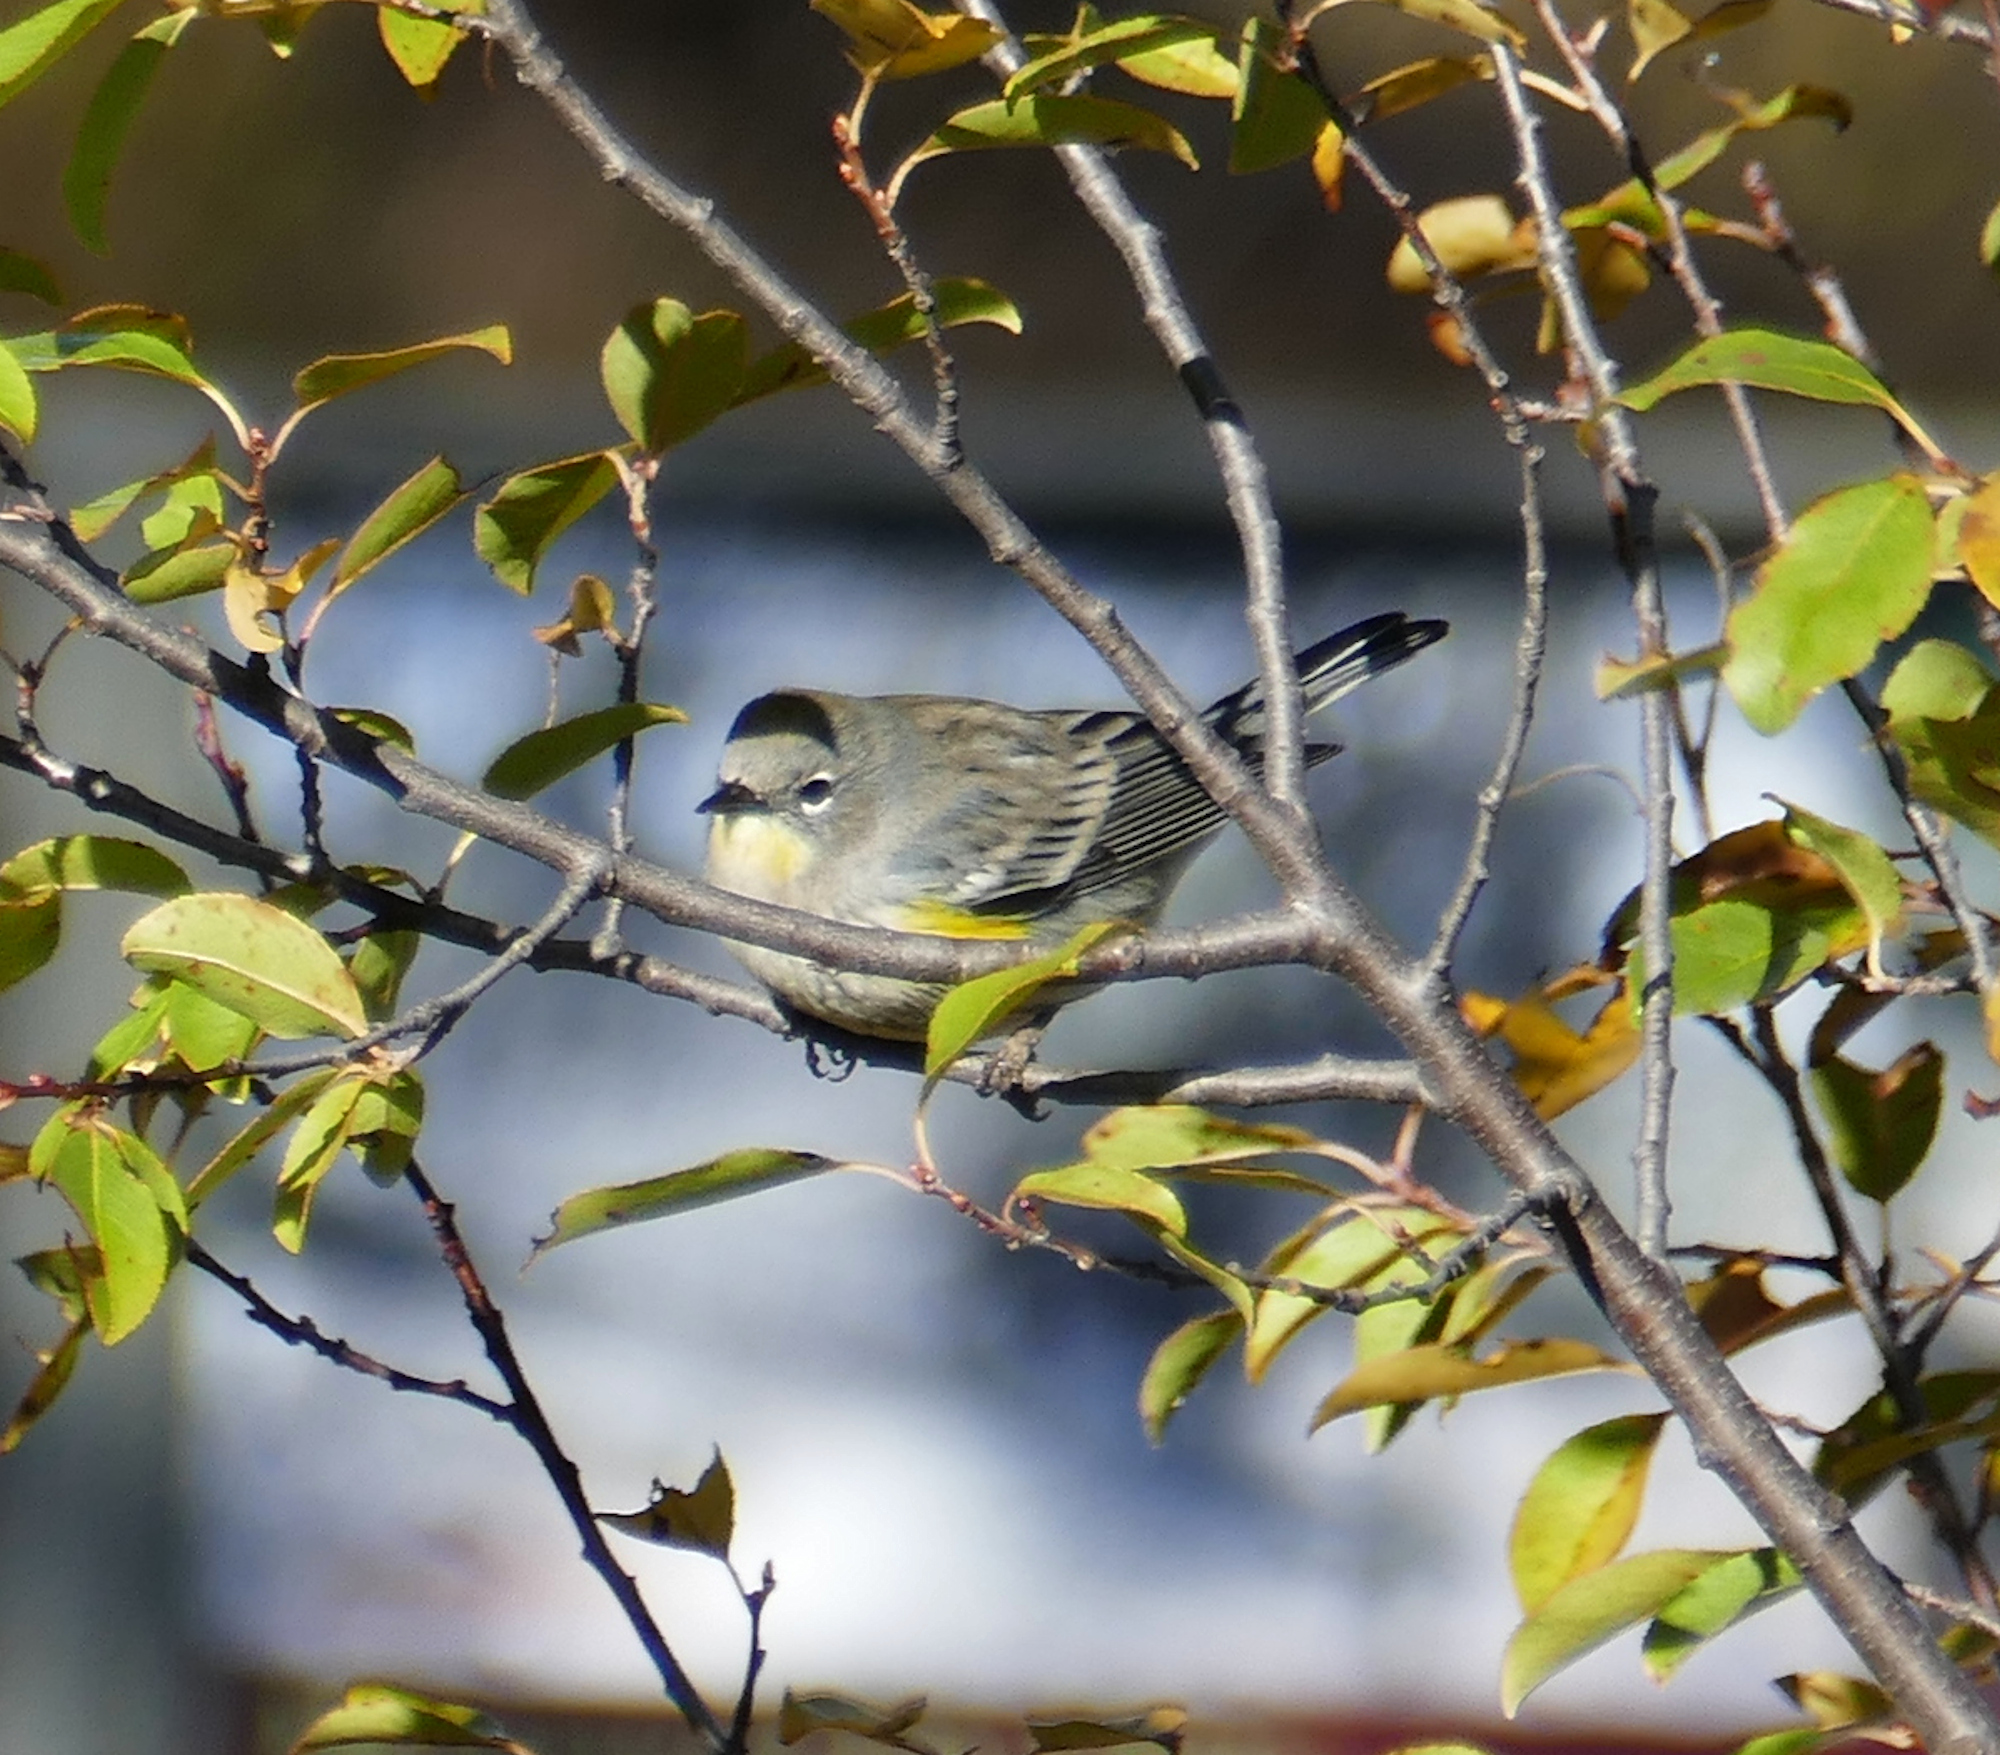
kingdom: Animalia
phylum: Chordata
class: Aves
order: Passeriformes
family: Parulidae
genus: Setophaga
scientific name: Setophaga auduboni
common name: Audubon's warbler
